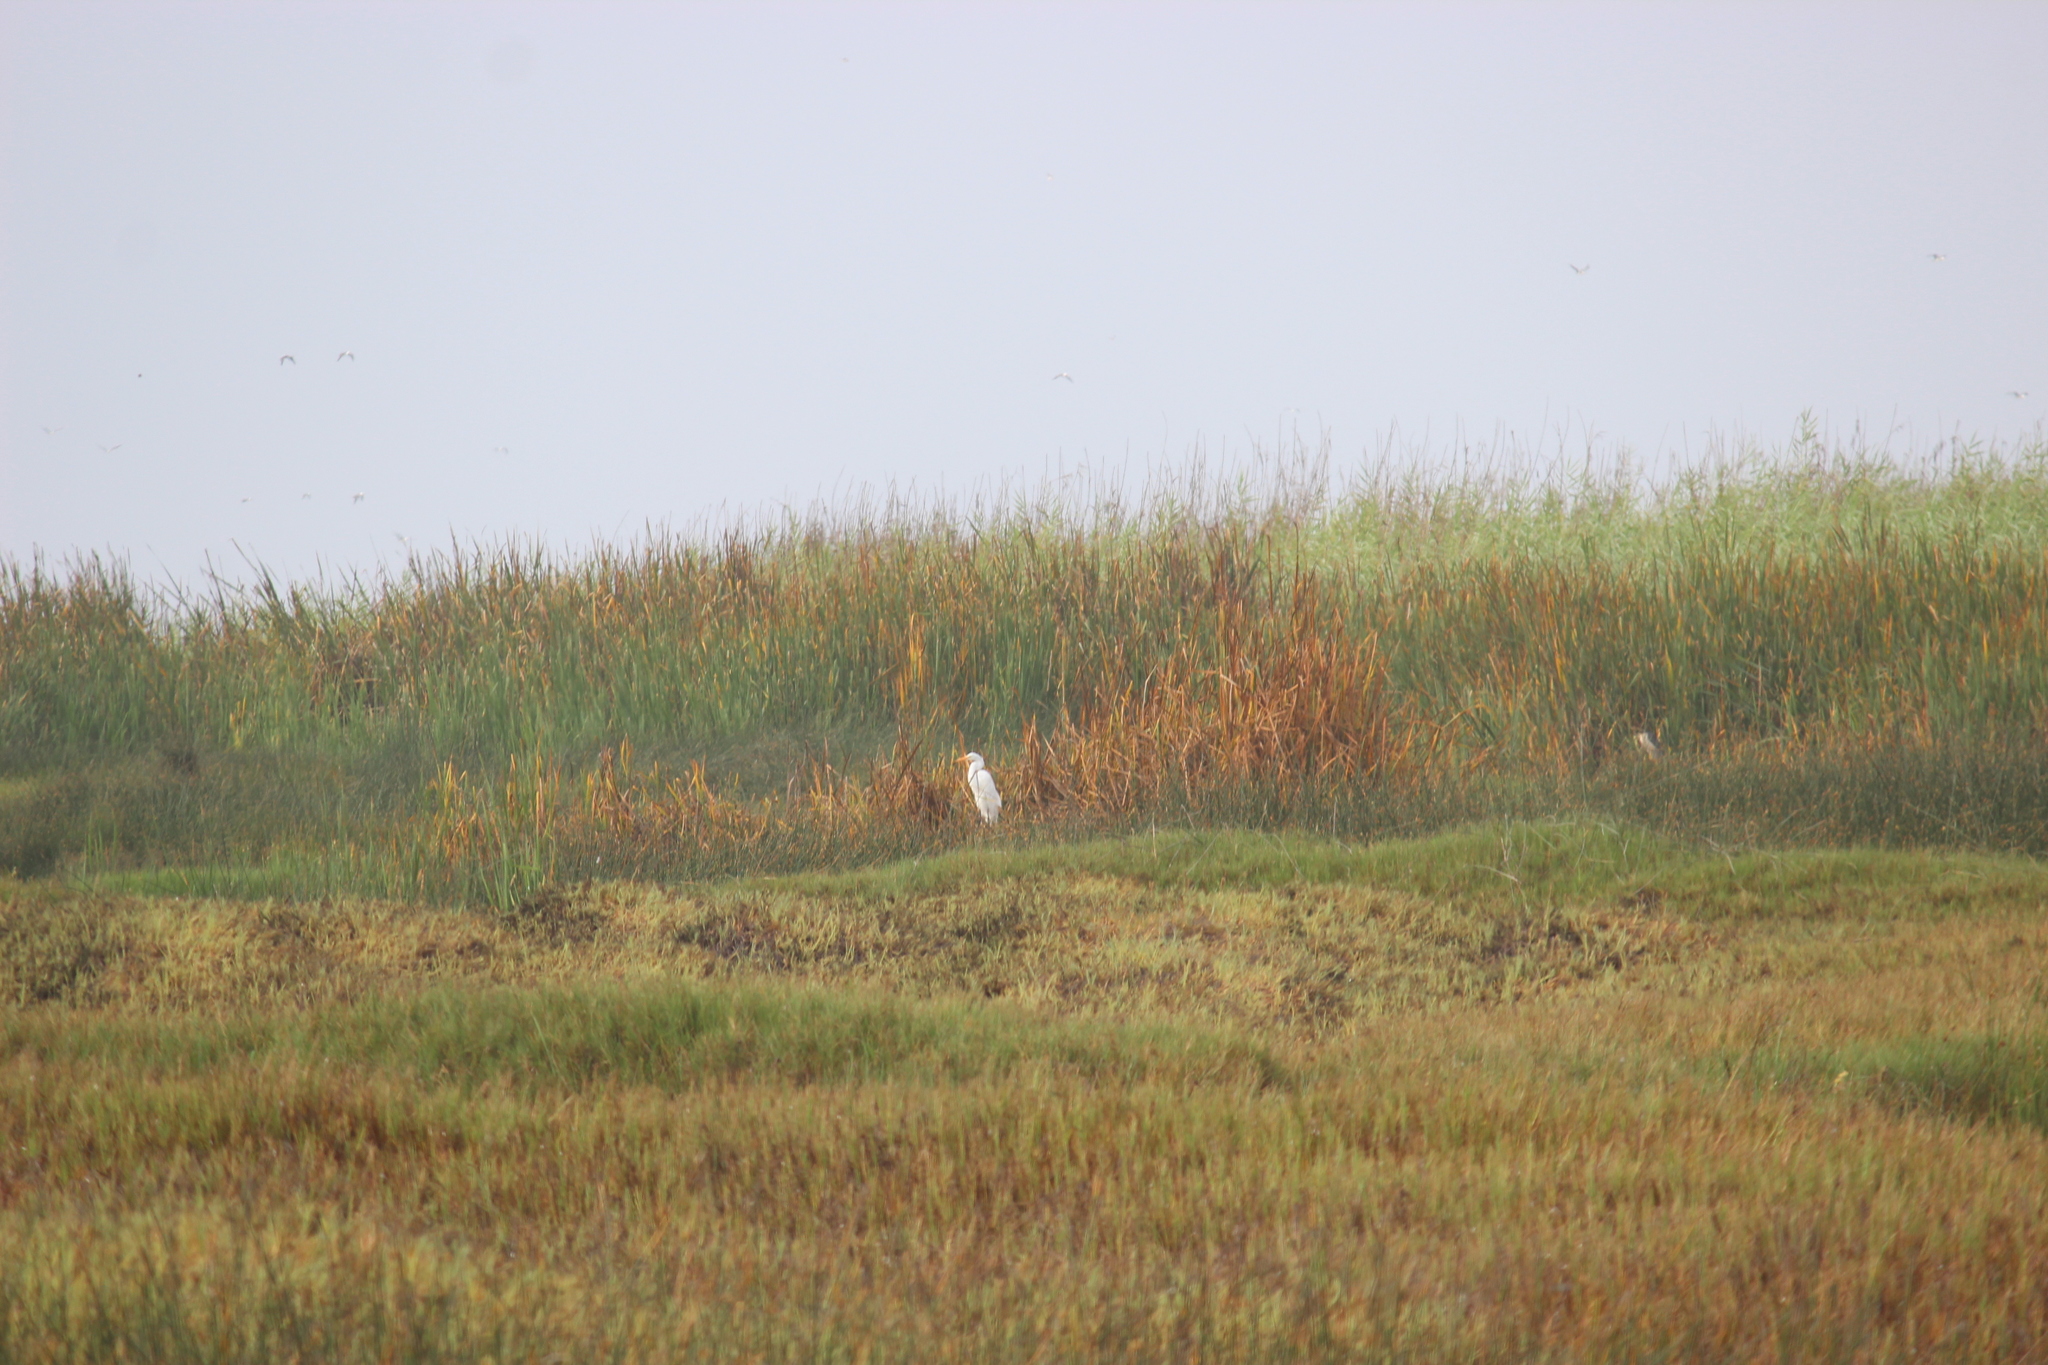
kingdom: Animalia
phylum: Chordata
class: Aves
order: Pelecaniformes
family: Ardeidae
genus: Ardea
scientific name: Ardea alba
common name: Great egret
